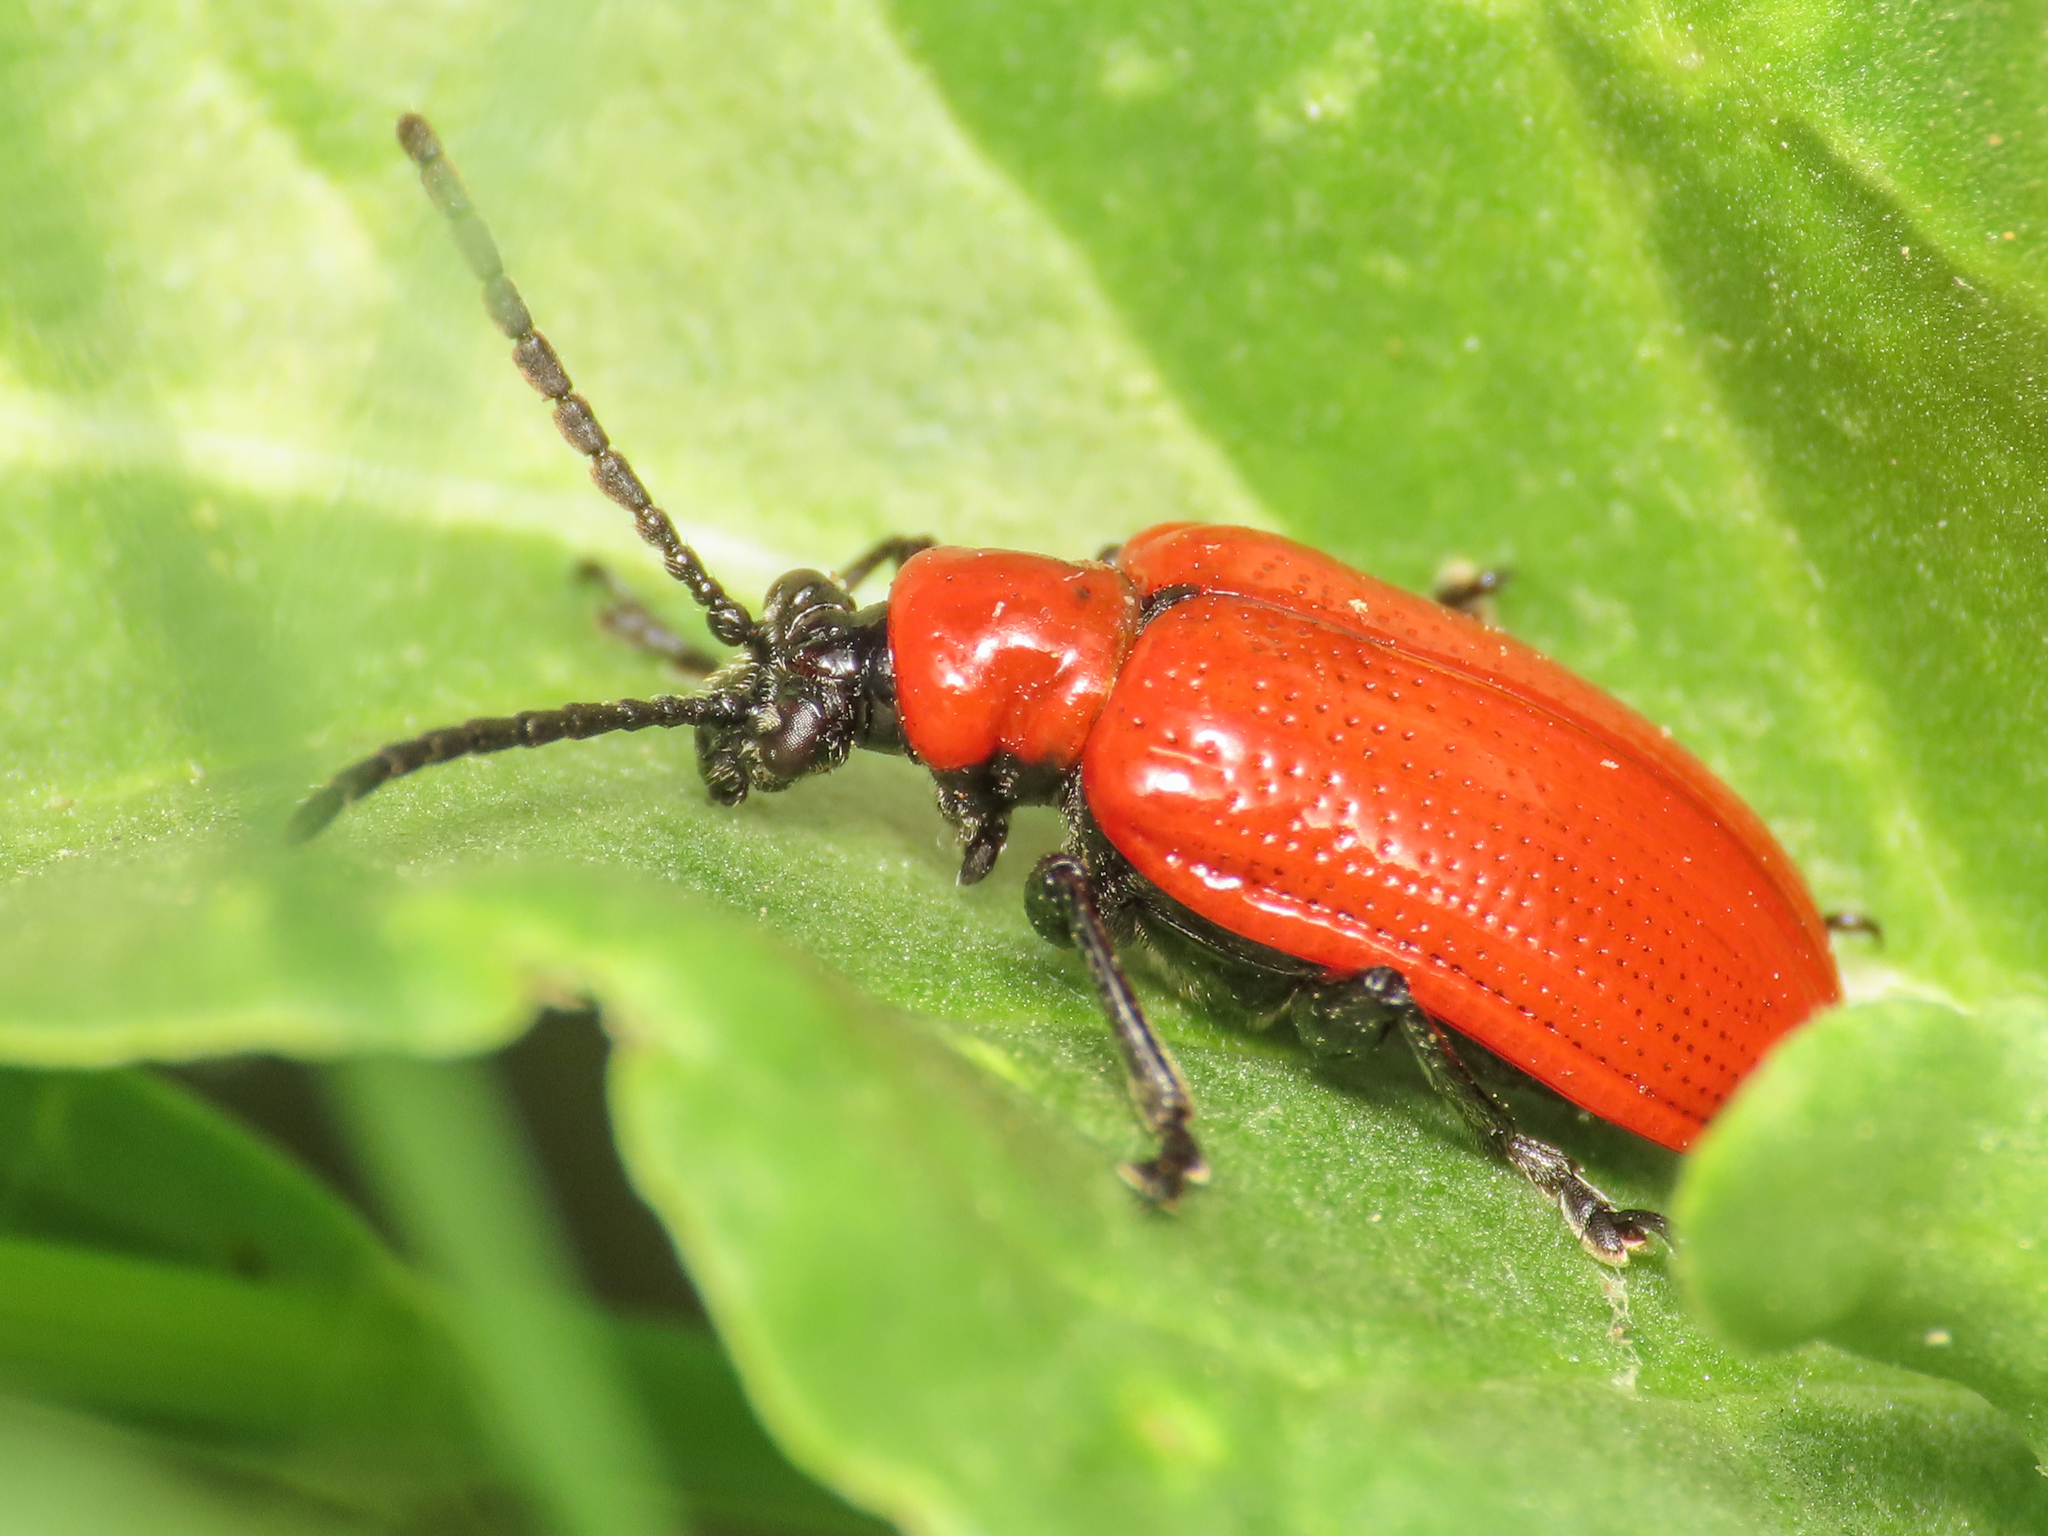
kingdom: Animalia
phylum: Arthropoda
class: Insecta
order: Coleoptera
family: Chrysomelidae
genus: Lilioceris
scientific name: Lilioceris lilii
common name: Lily beetle
